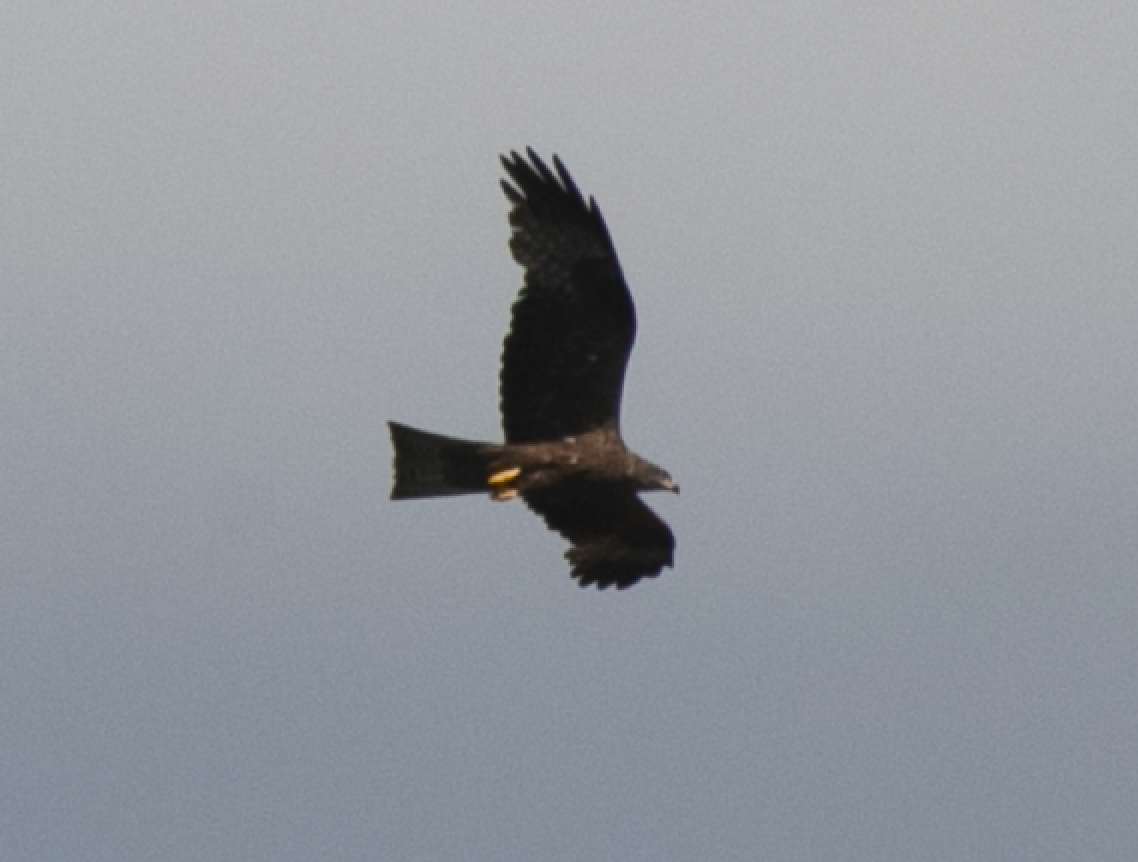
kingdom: Animalia
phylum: Chordata
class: Aves
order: Accipitriformes
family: Accipitridae
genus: Milvus
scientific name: Milvus migrans
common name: Black kite
